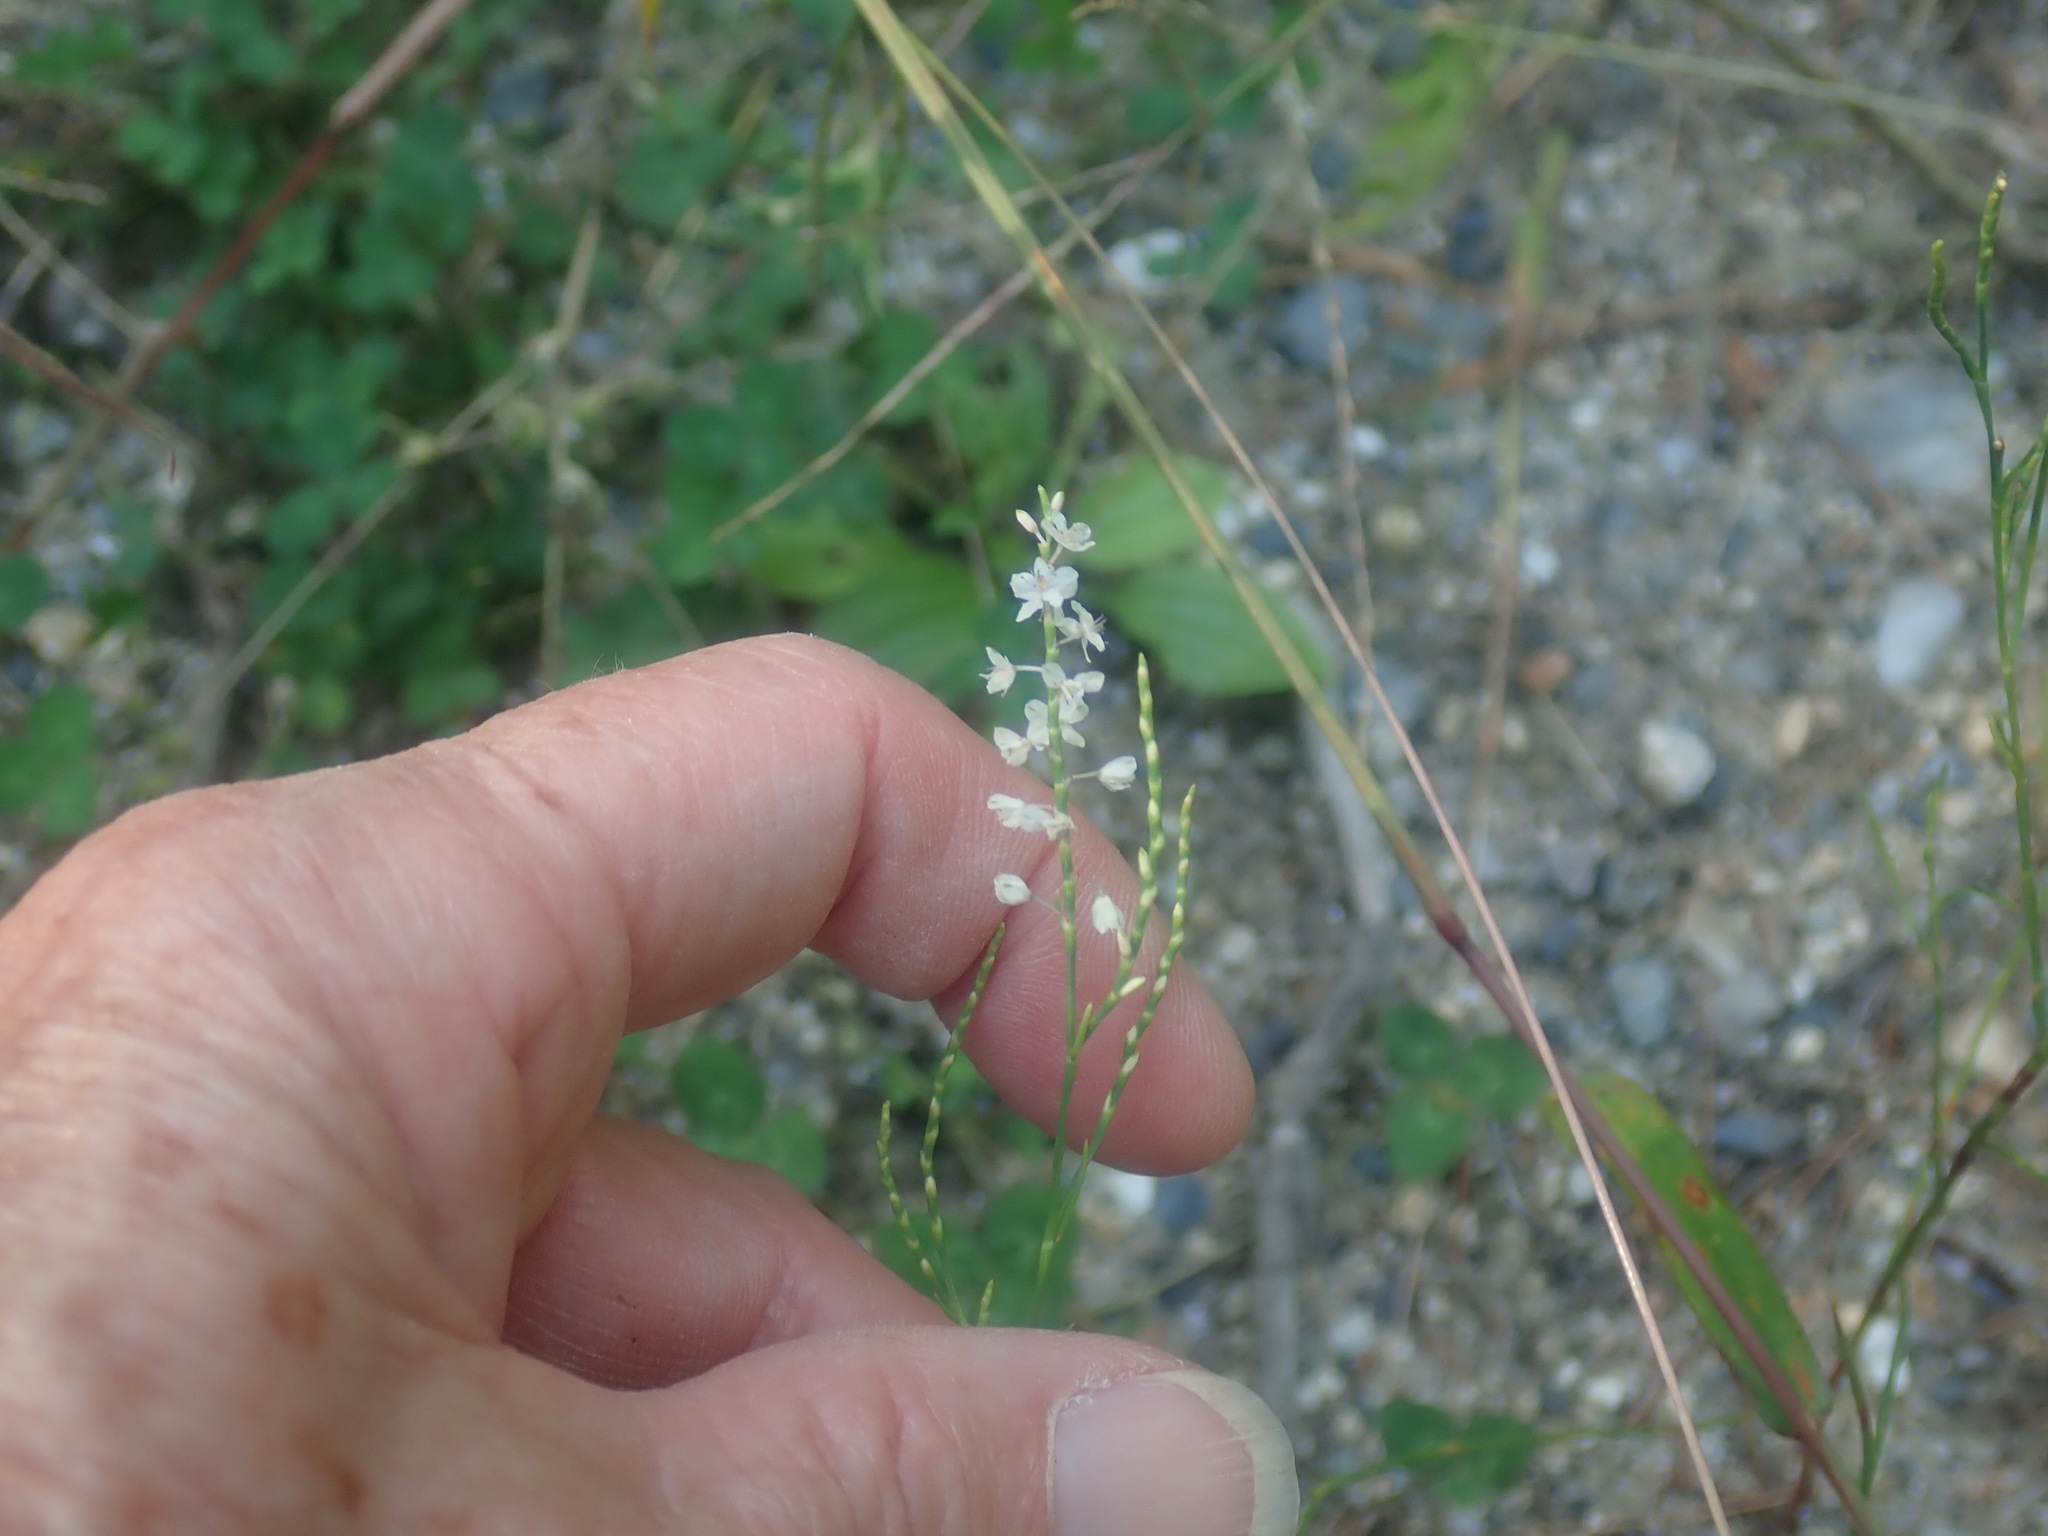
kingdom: Plantae
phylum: Tracheophyta
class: Magnoliopsida
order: Caryophyllales
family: Polygonaceae
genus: Polygonella
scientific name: Polygonella articulata
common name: Coastal jointweed
